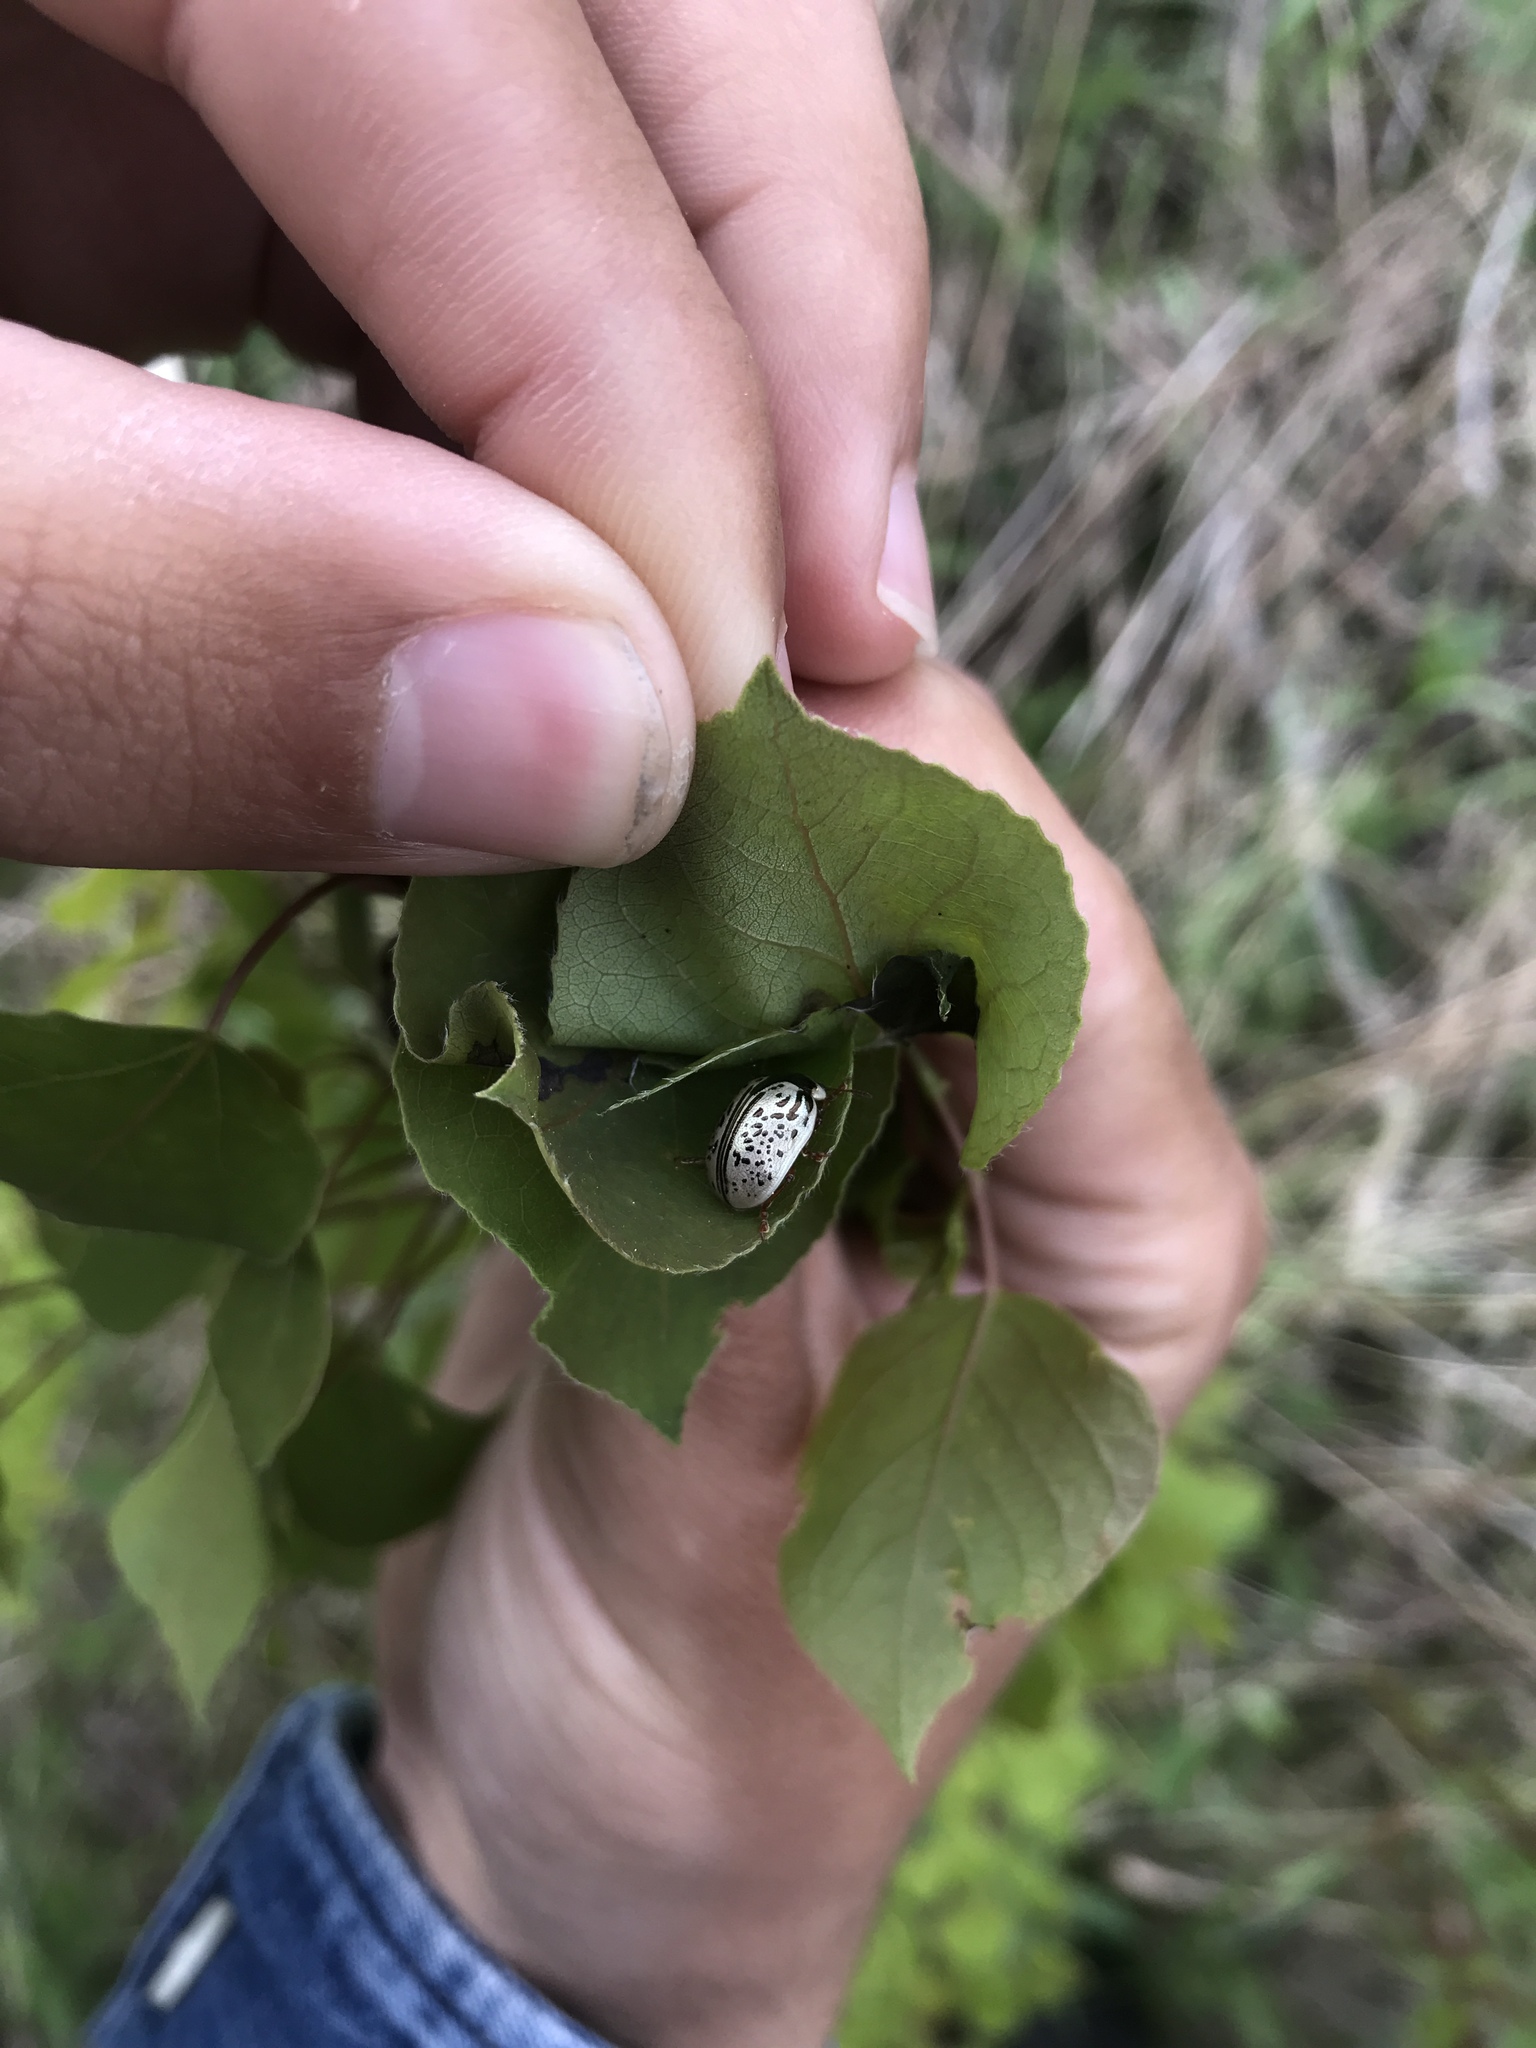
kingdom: Animalia
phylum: Arthropoda
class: Insecta
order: Coleoptera
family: Chrysomelidae
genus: Calligrapha
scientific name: Calligrapha multipunctata
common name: Common willow calligrapher beetle
